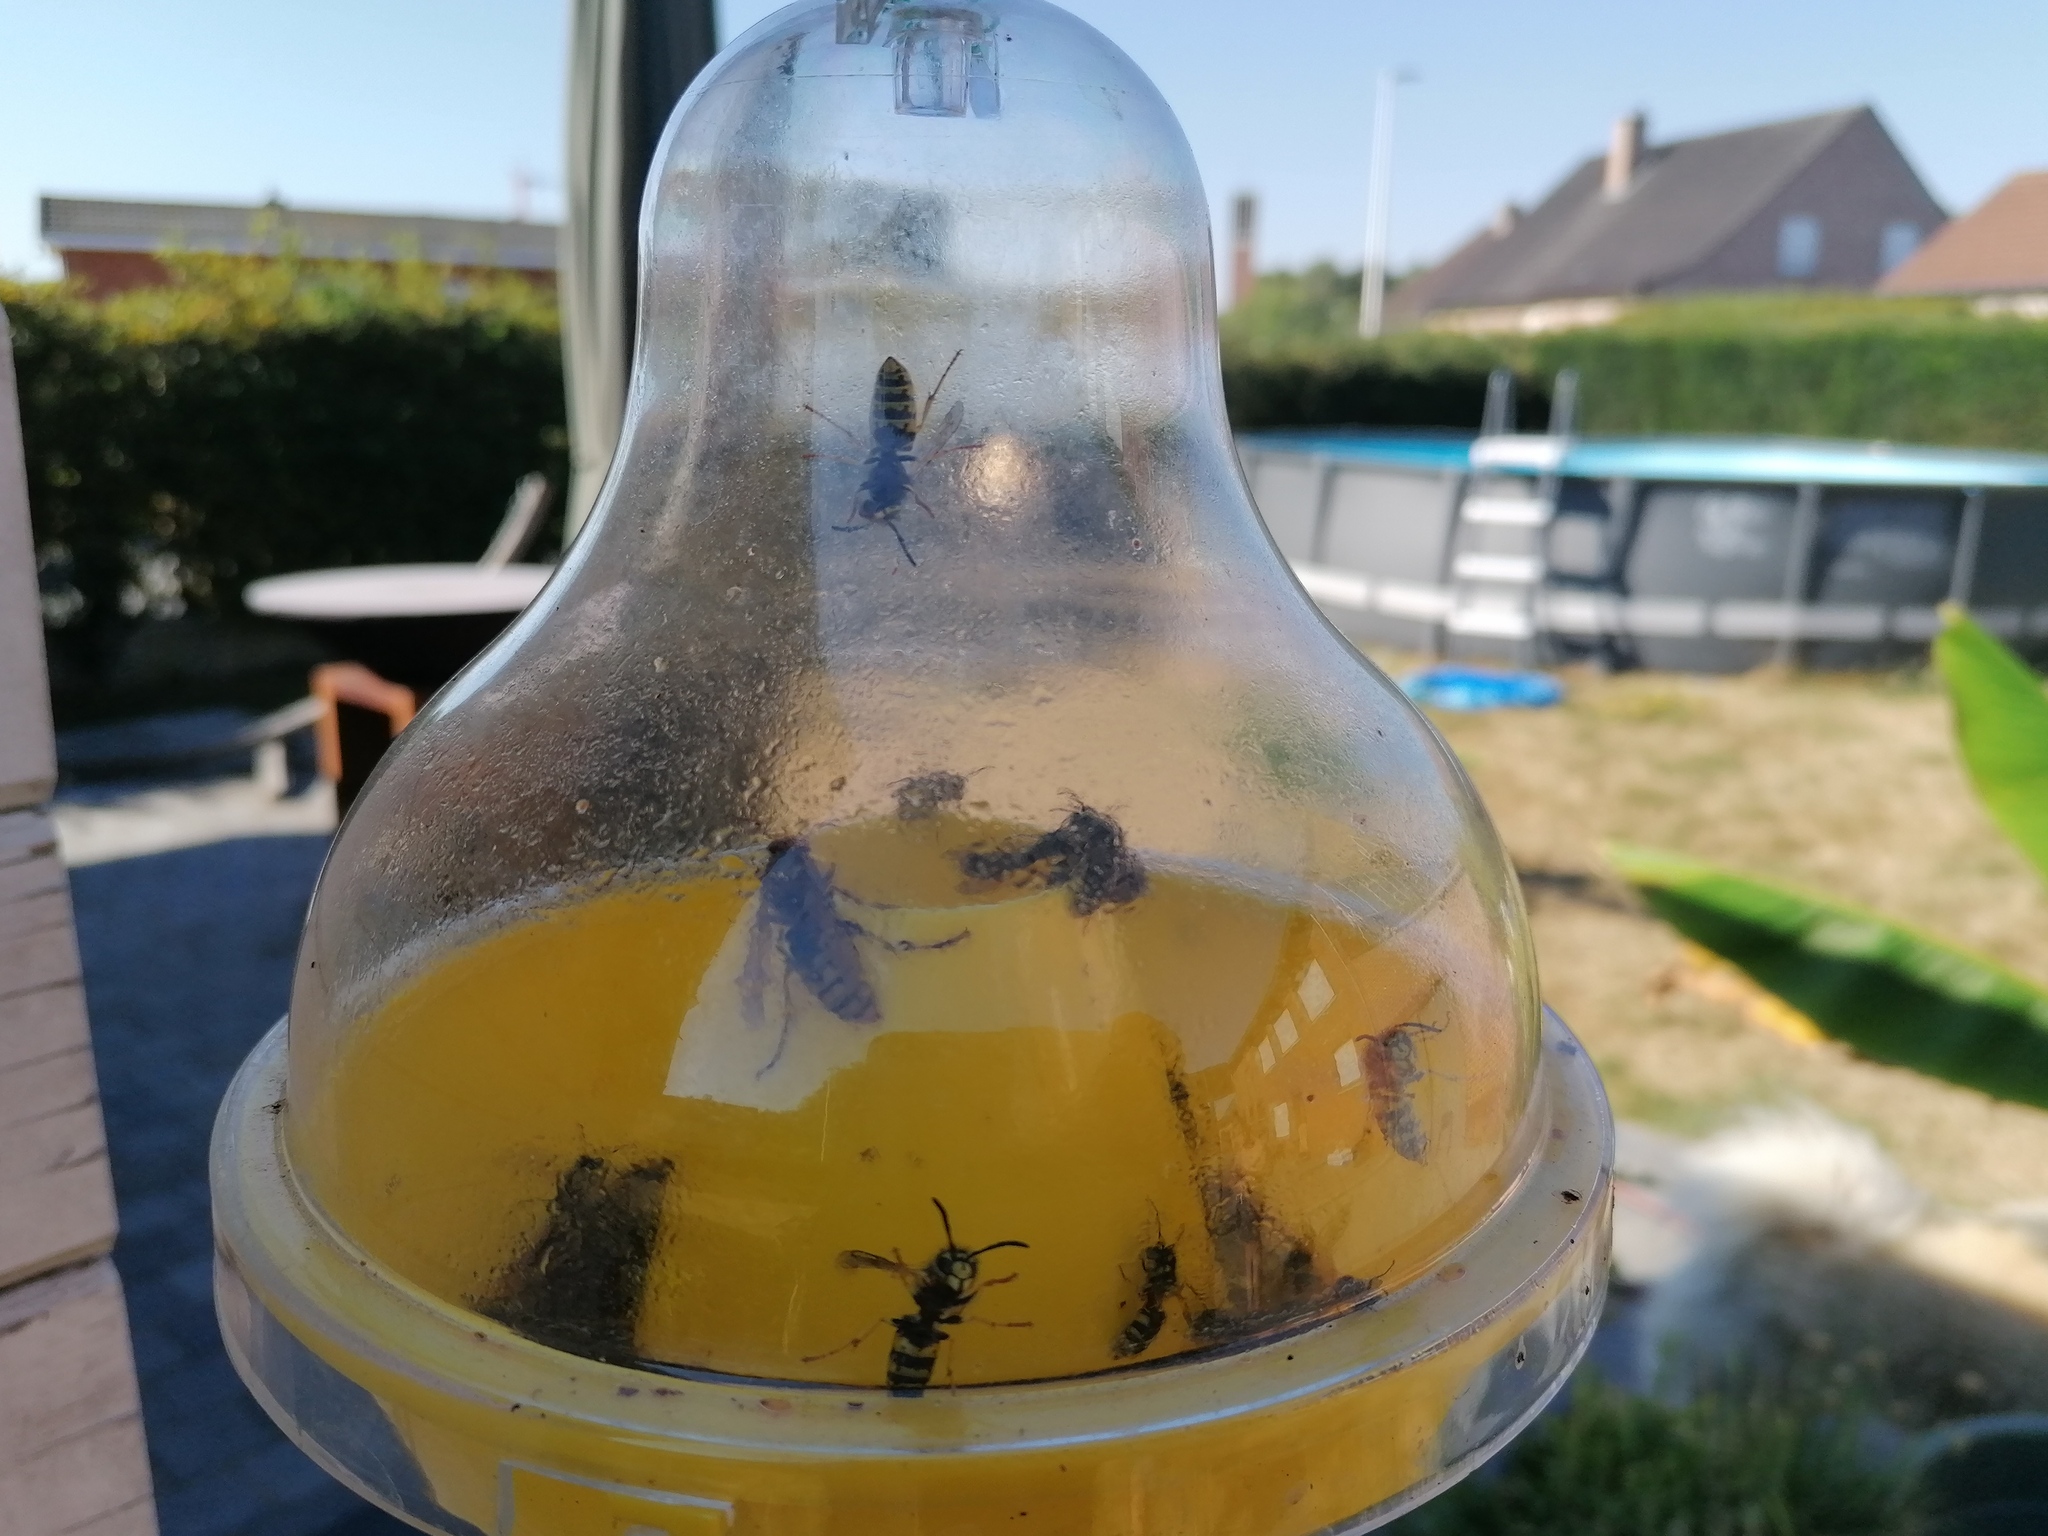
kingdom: Animalia
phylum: Arthropoda
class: Insecta
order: Hymenoptera
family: Vespidae
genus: Vespa
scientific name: Vespa crabro
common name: Hornet
